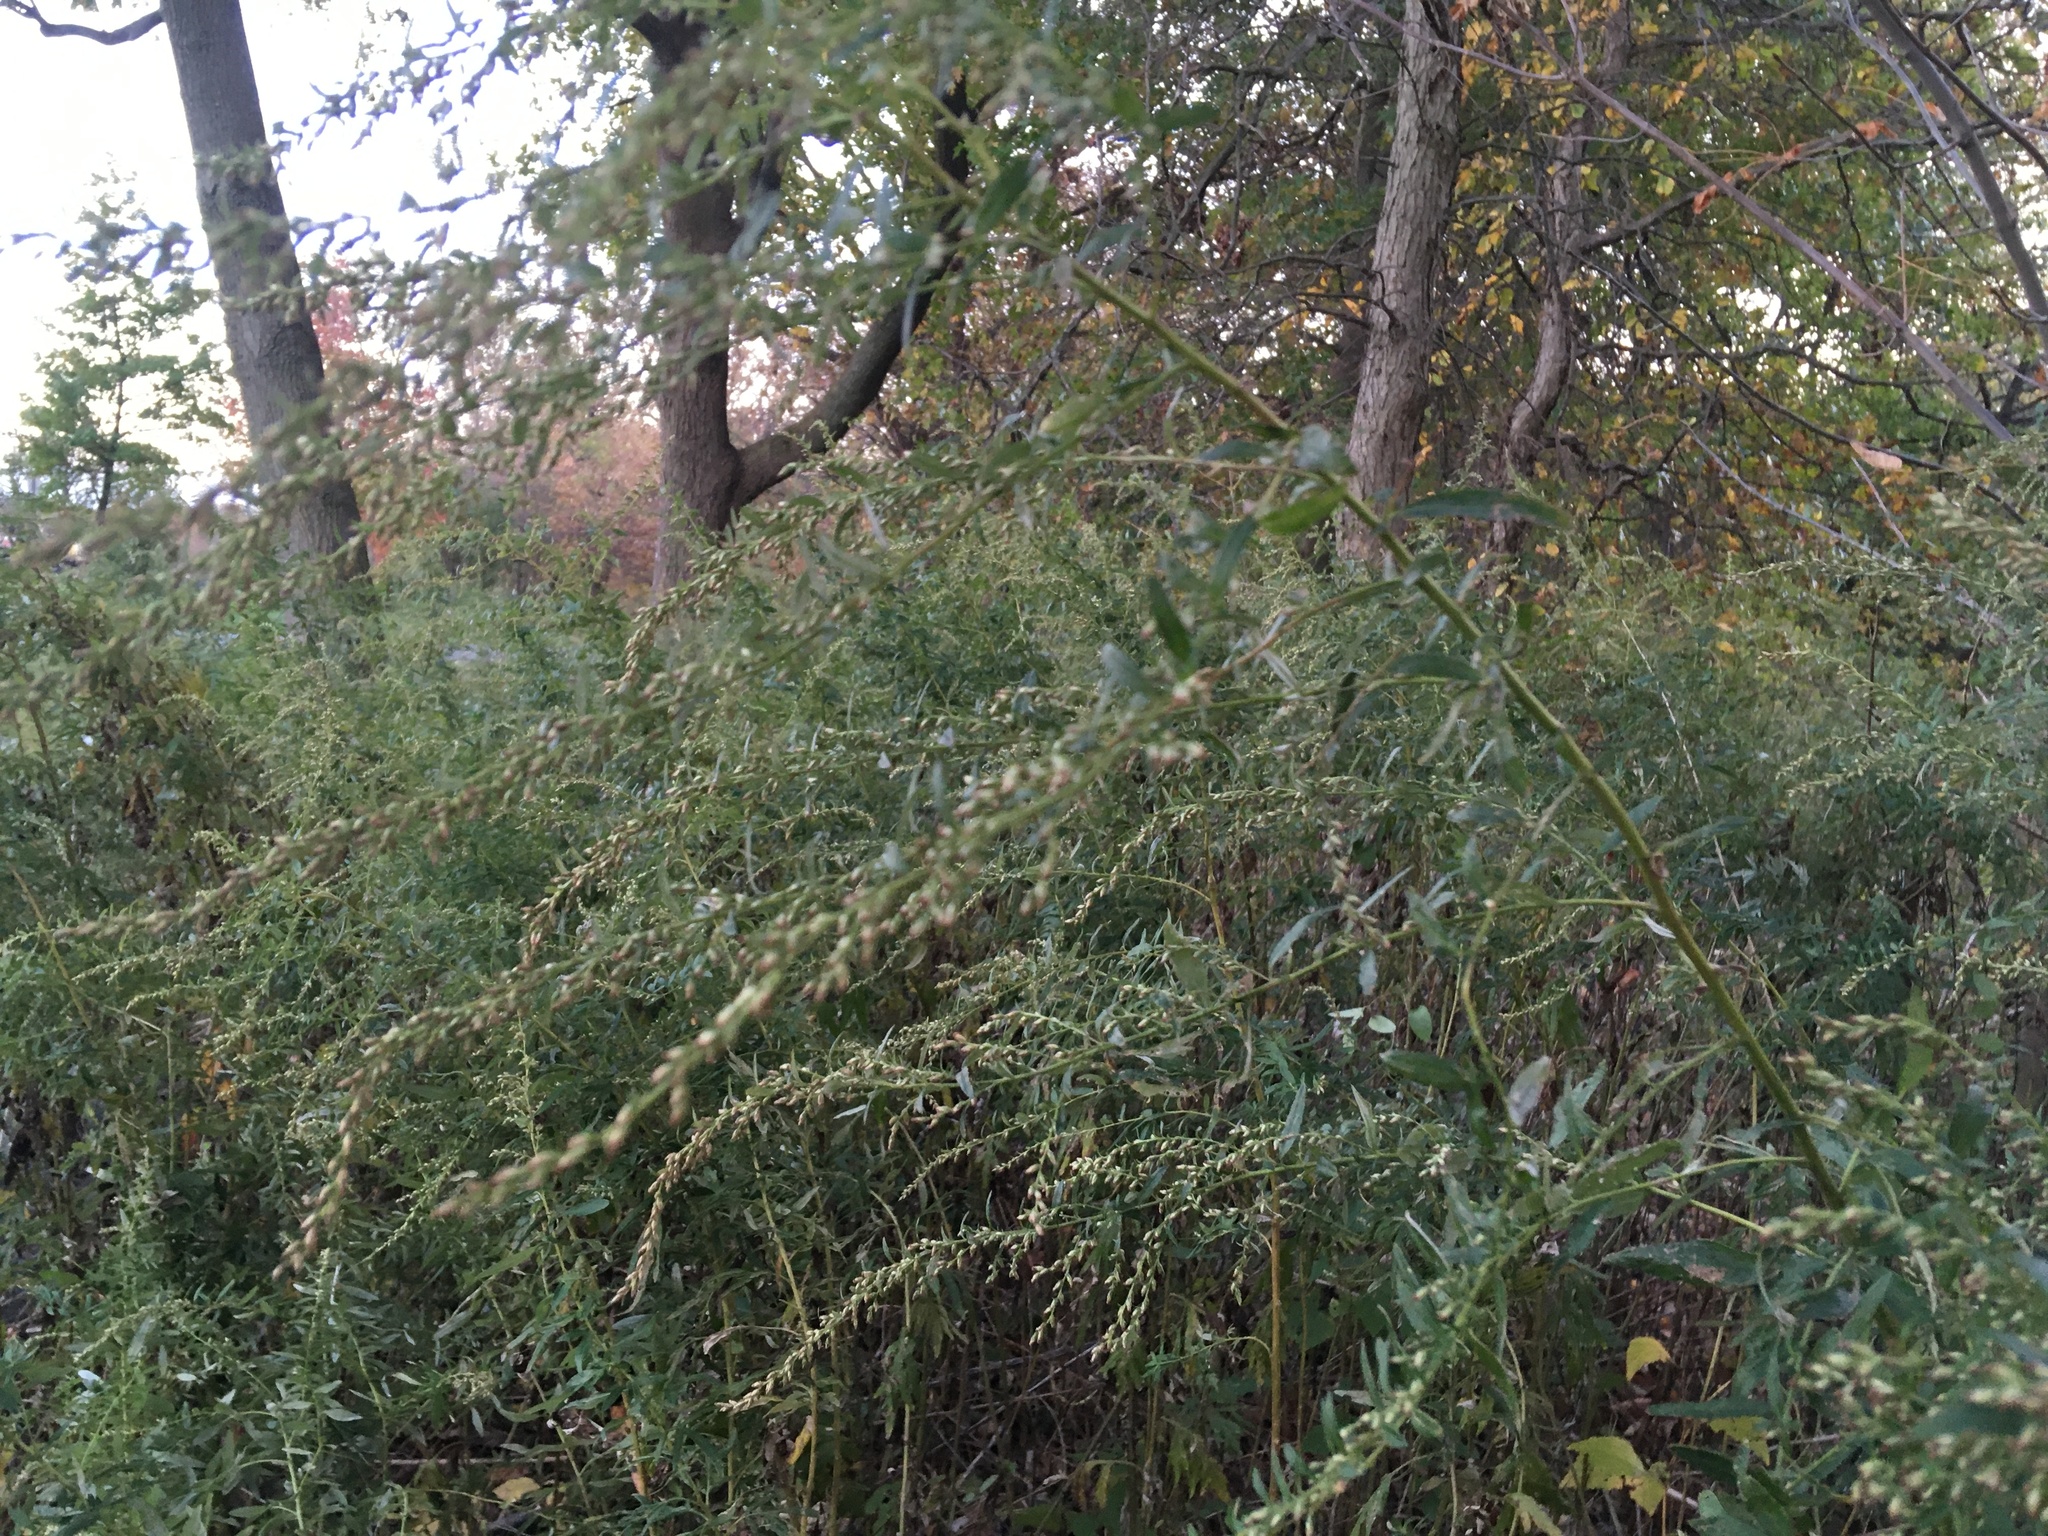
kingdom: Plantae
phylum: Tracheophyta
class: Magnoliopsida
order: Asterales
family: Asteraceae
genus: Artemisia
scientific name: Artemisia vulgaris
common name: Mugwort
